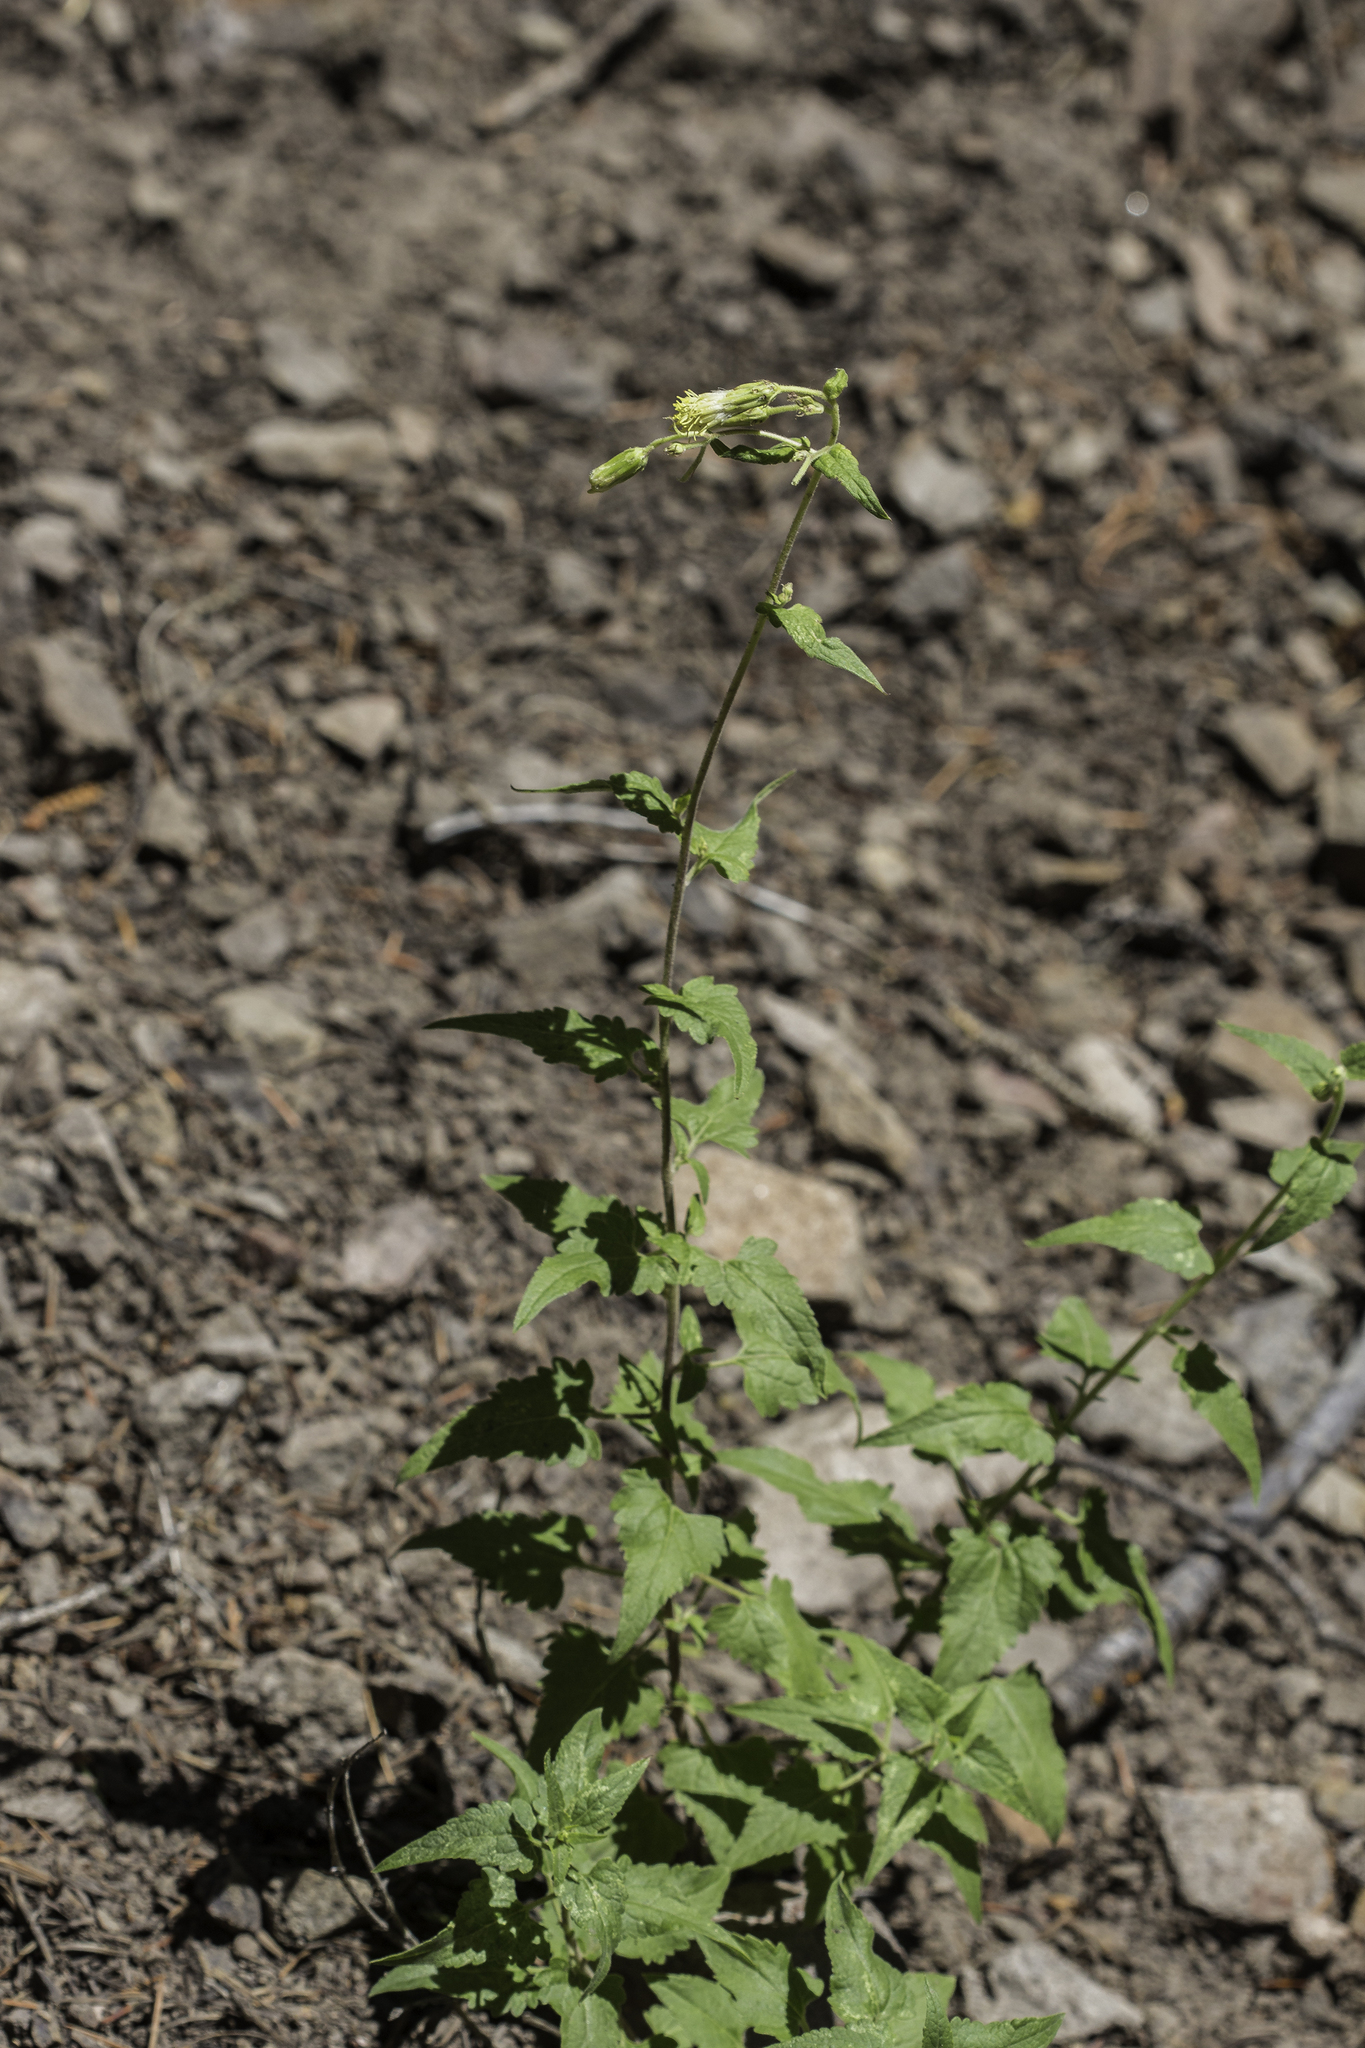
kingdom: Plantae
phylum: Tracheophyta
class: Magnoliopsida
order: Asterales
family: Asteraceae
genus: Brickellia
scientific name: Brickellia grandiflora
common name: Large-flowered brickellia
